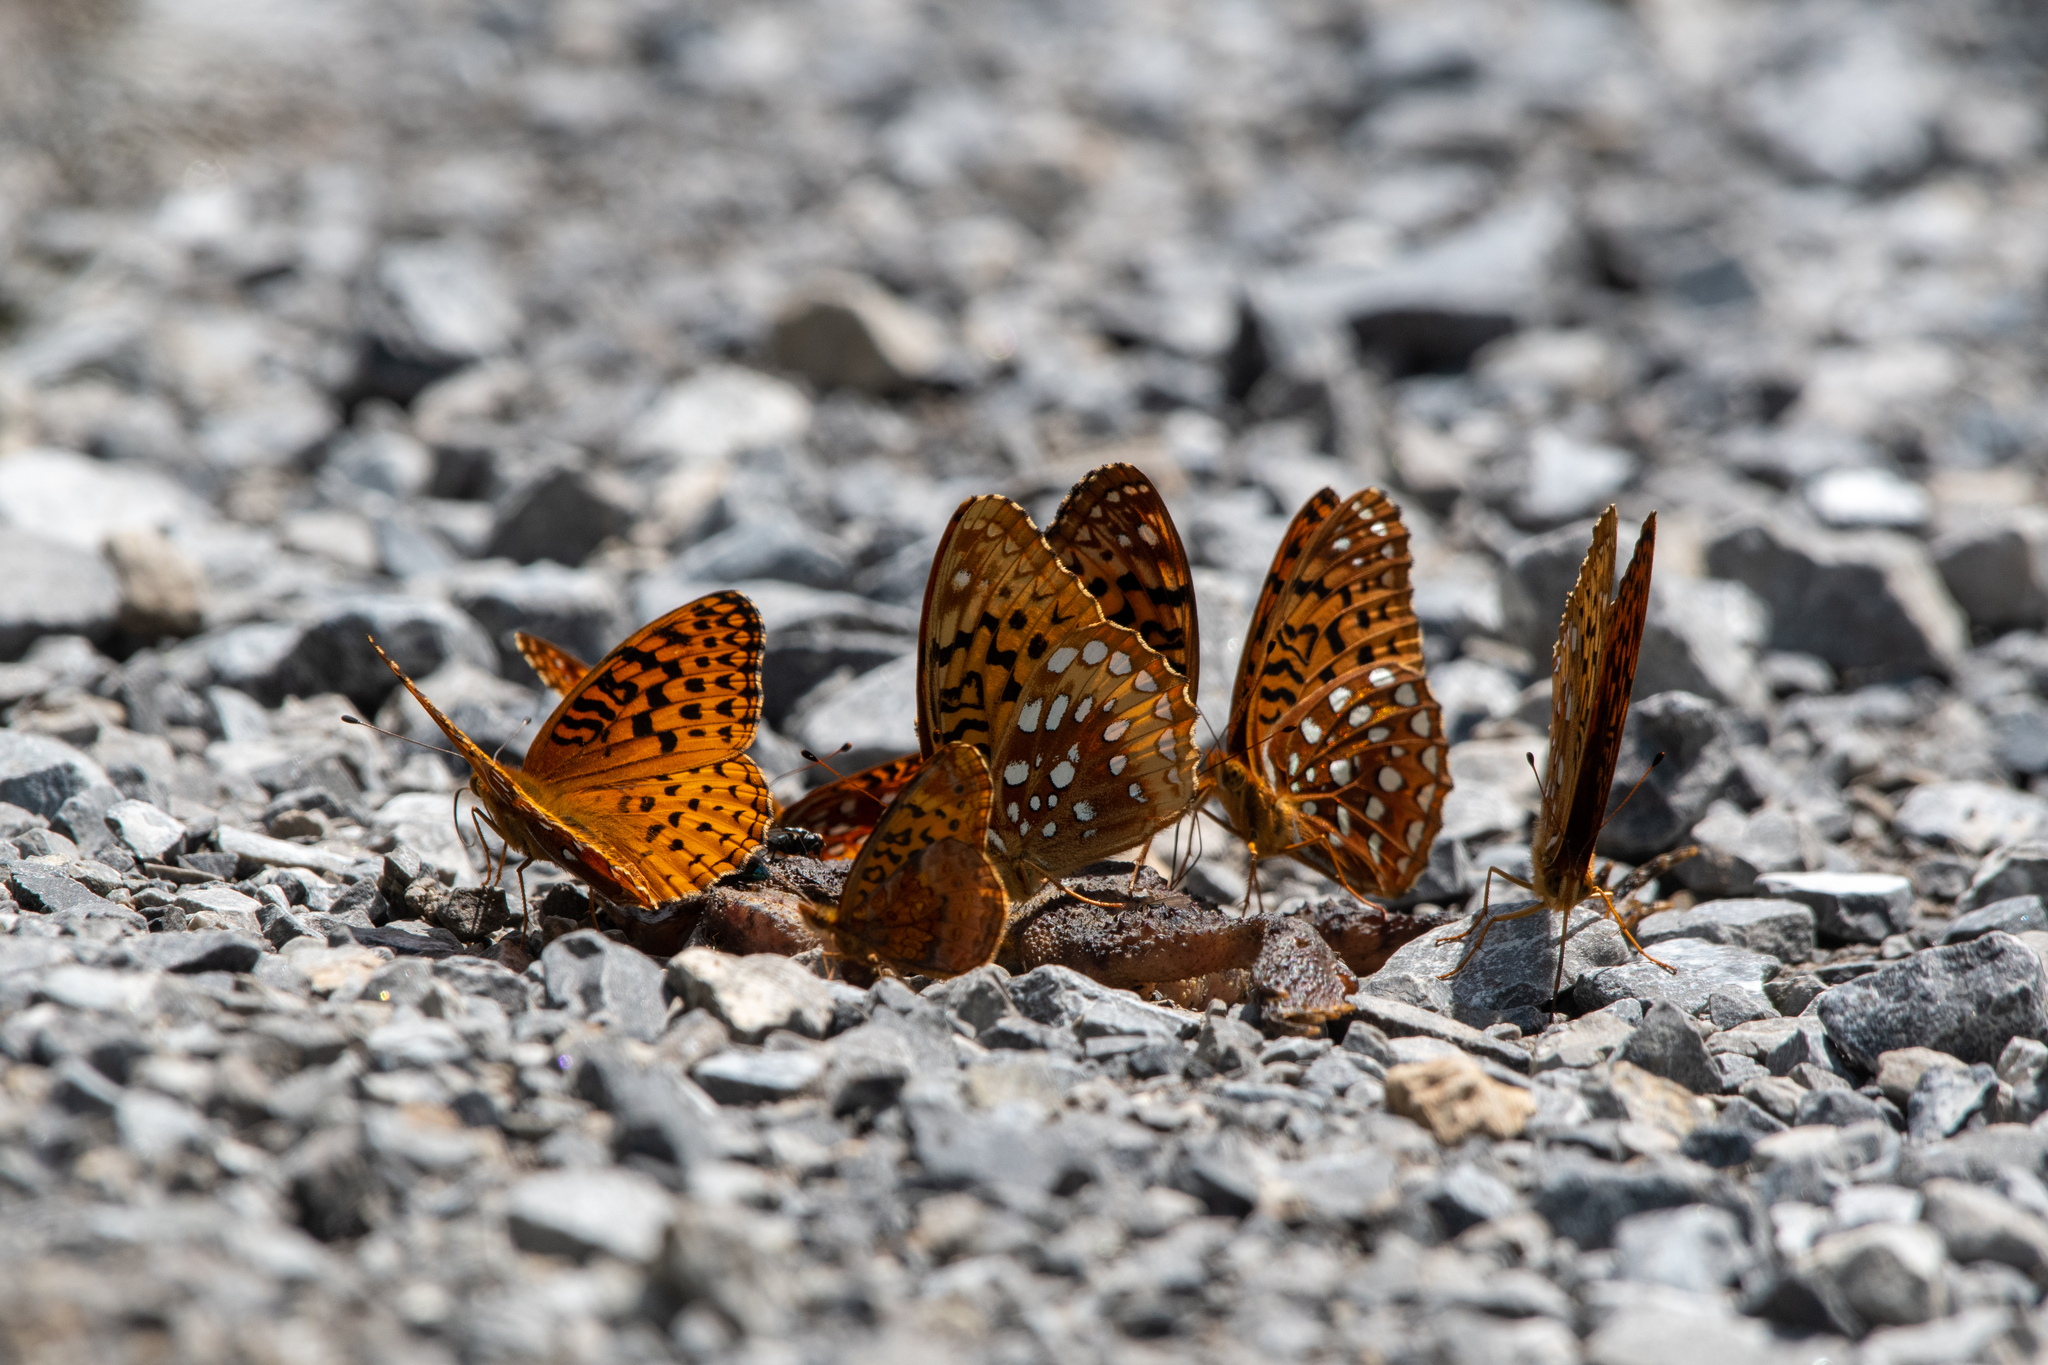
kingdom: Animalia
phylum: Arthropoda
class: Insecta
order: Lepidoptera
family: Nymphalidae
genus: Speyeria
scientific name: Speyeria aphrodite
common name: Aphrodite friitllary
